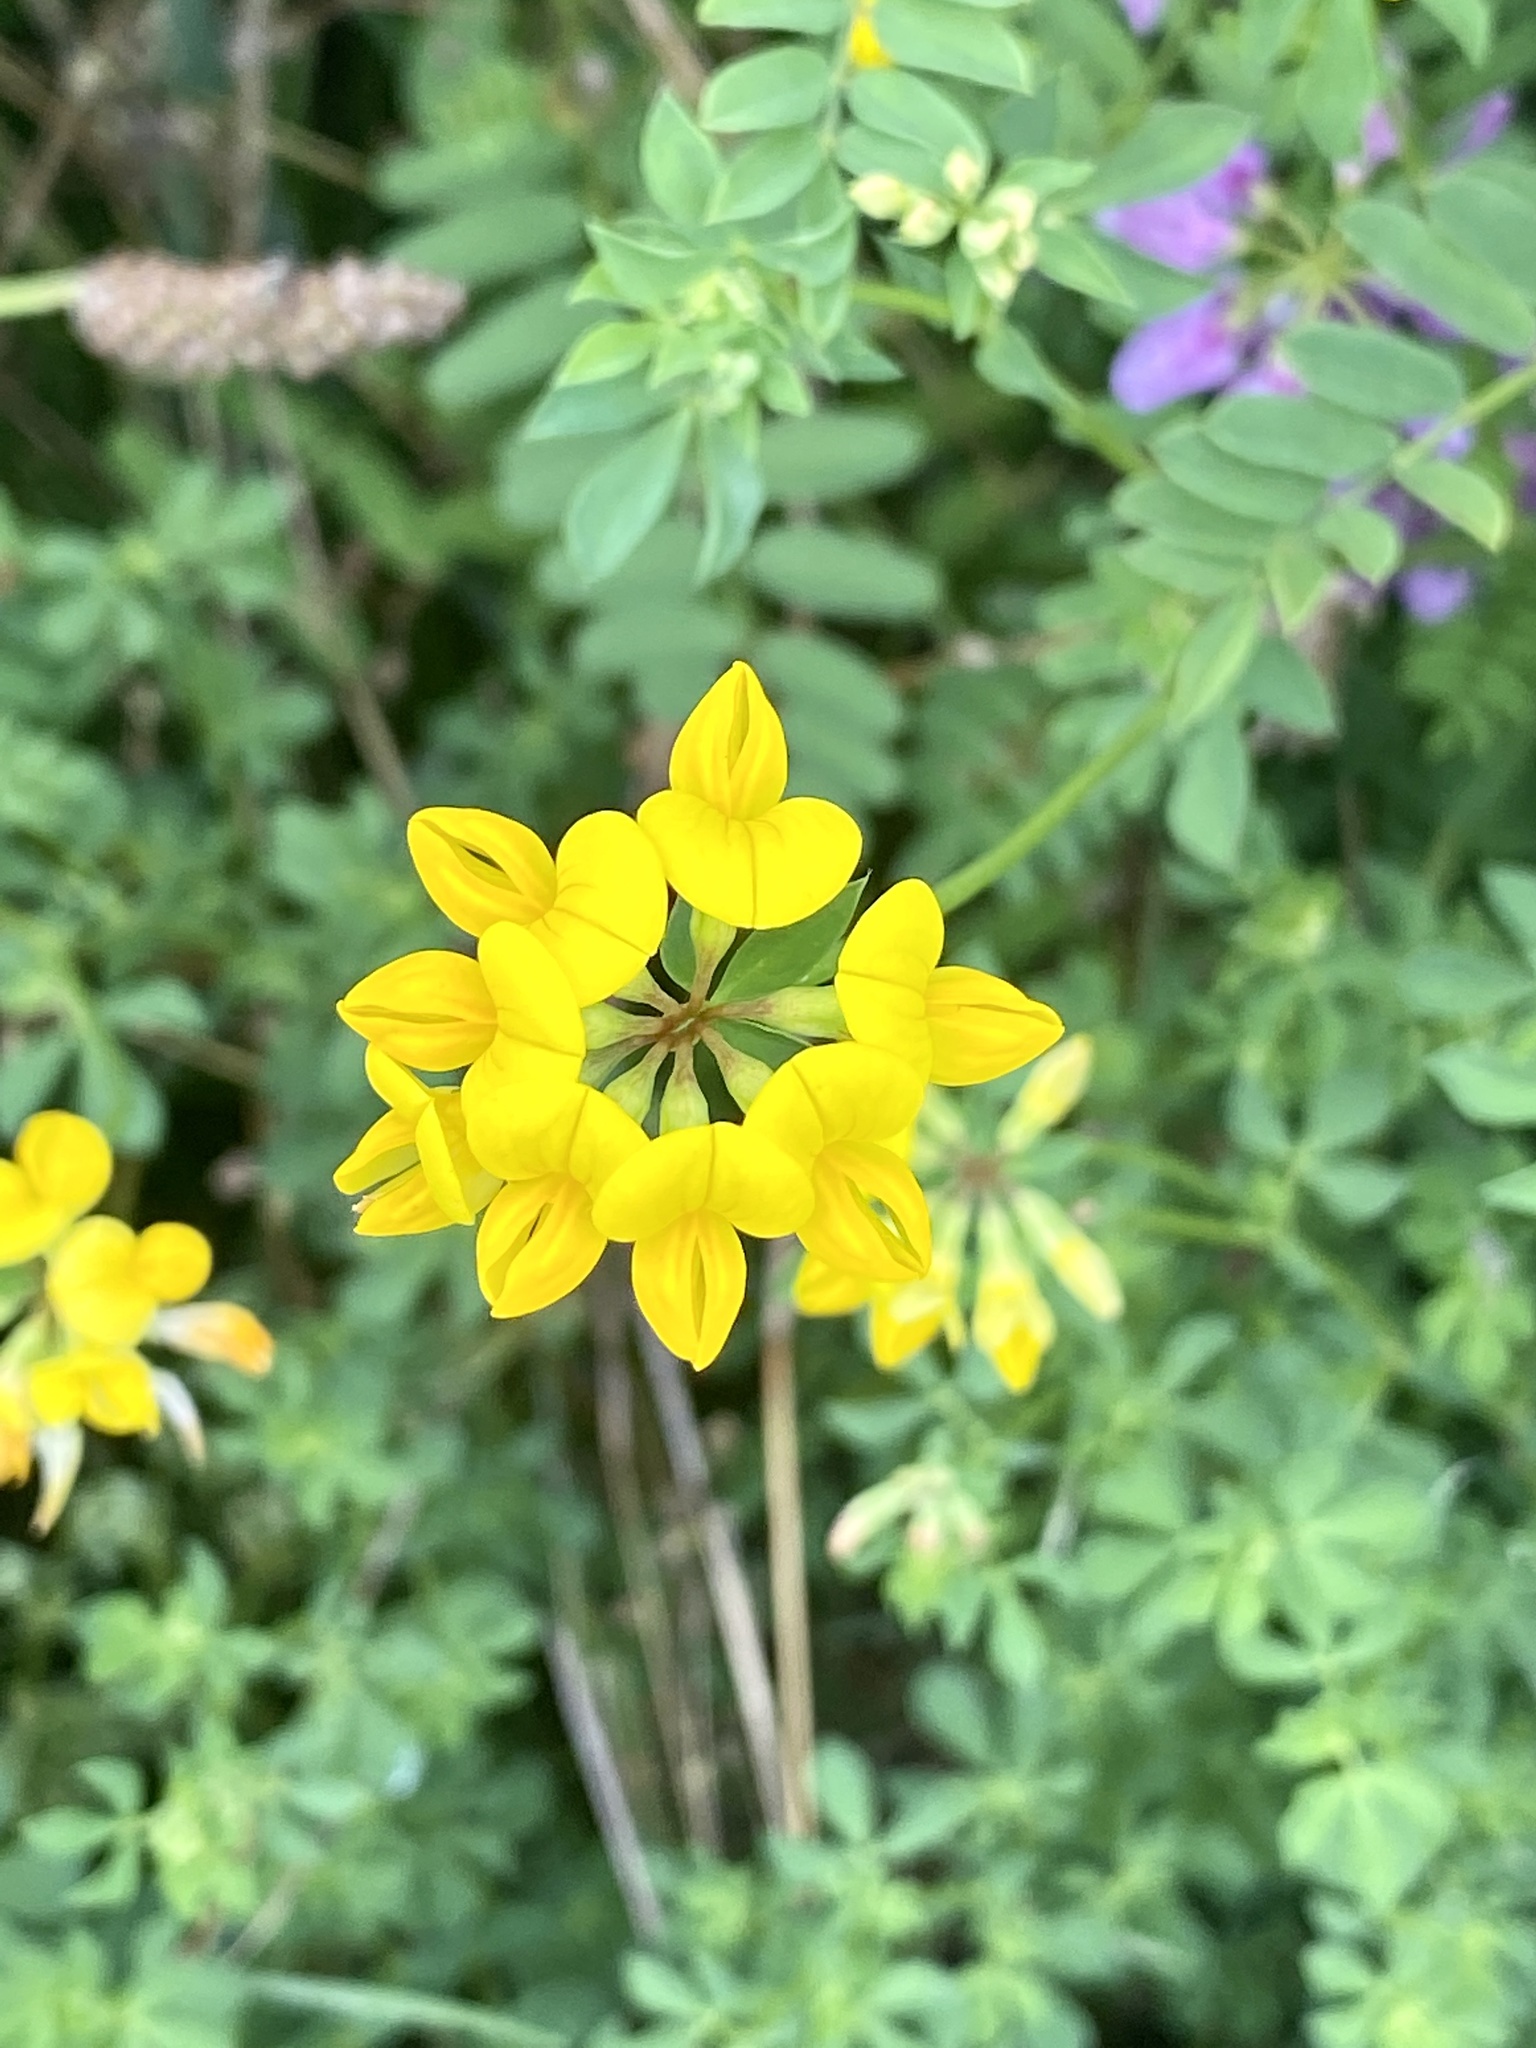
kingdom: Plantae
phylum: Tracheophyta
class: Magnoliopsida
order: Fabales
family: Fabaceae
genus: Lotus
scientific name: Lotus corniculatus
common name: Common bird's-foot-trefoil
